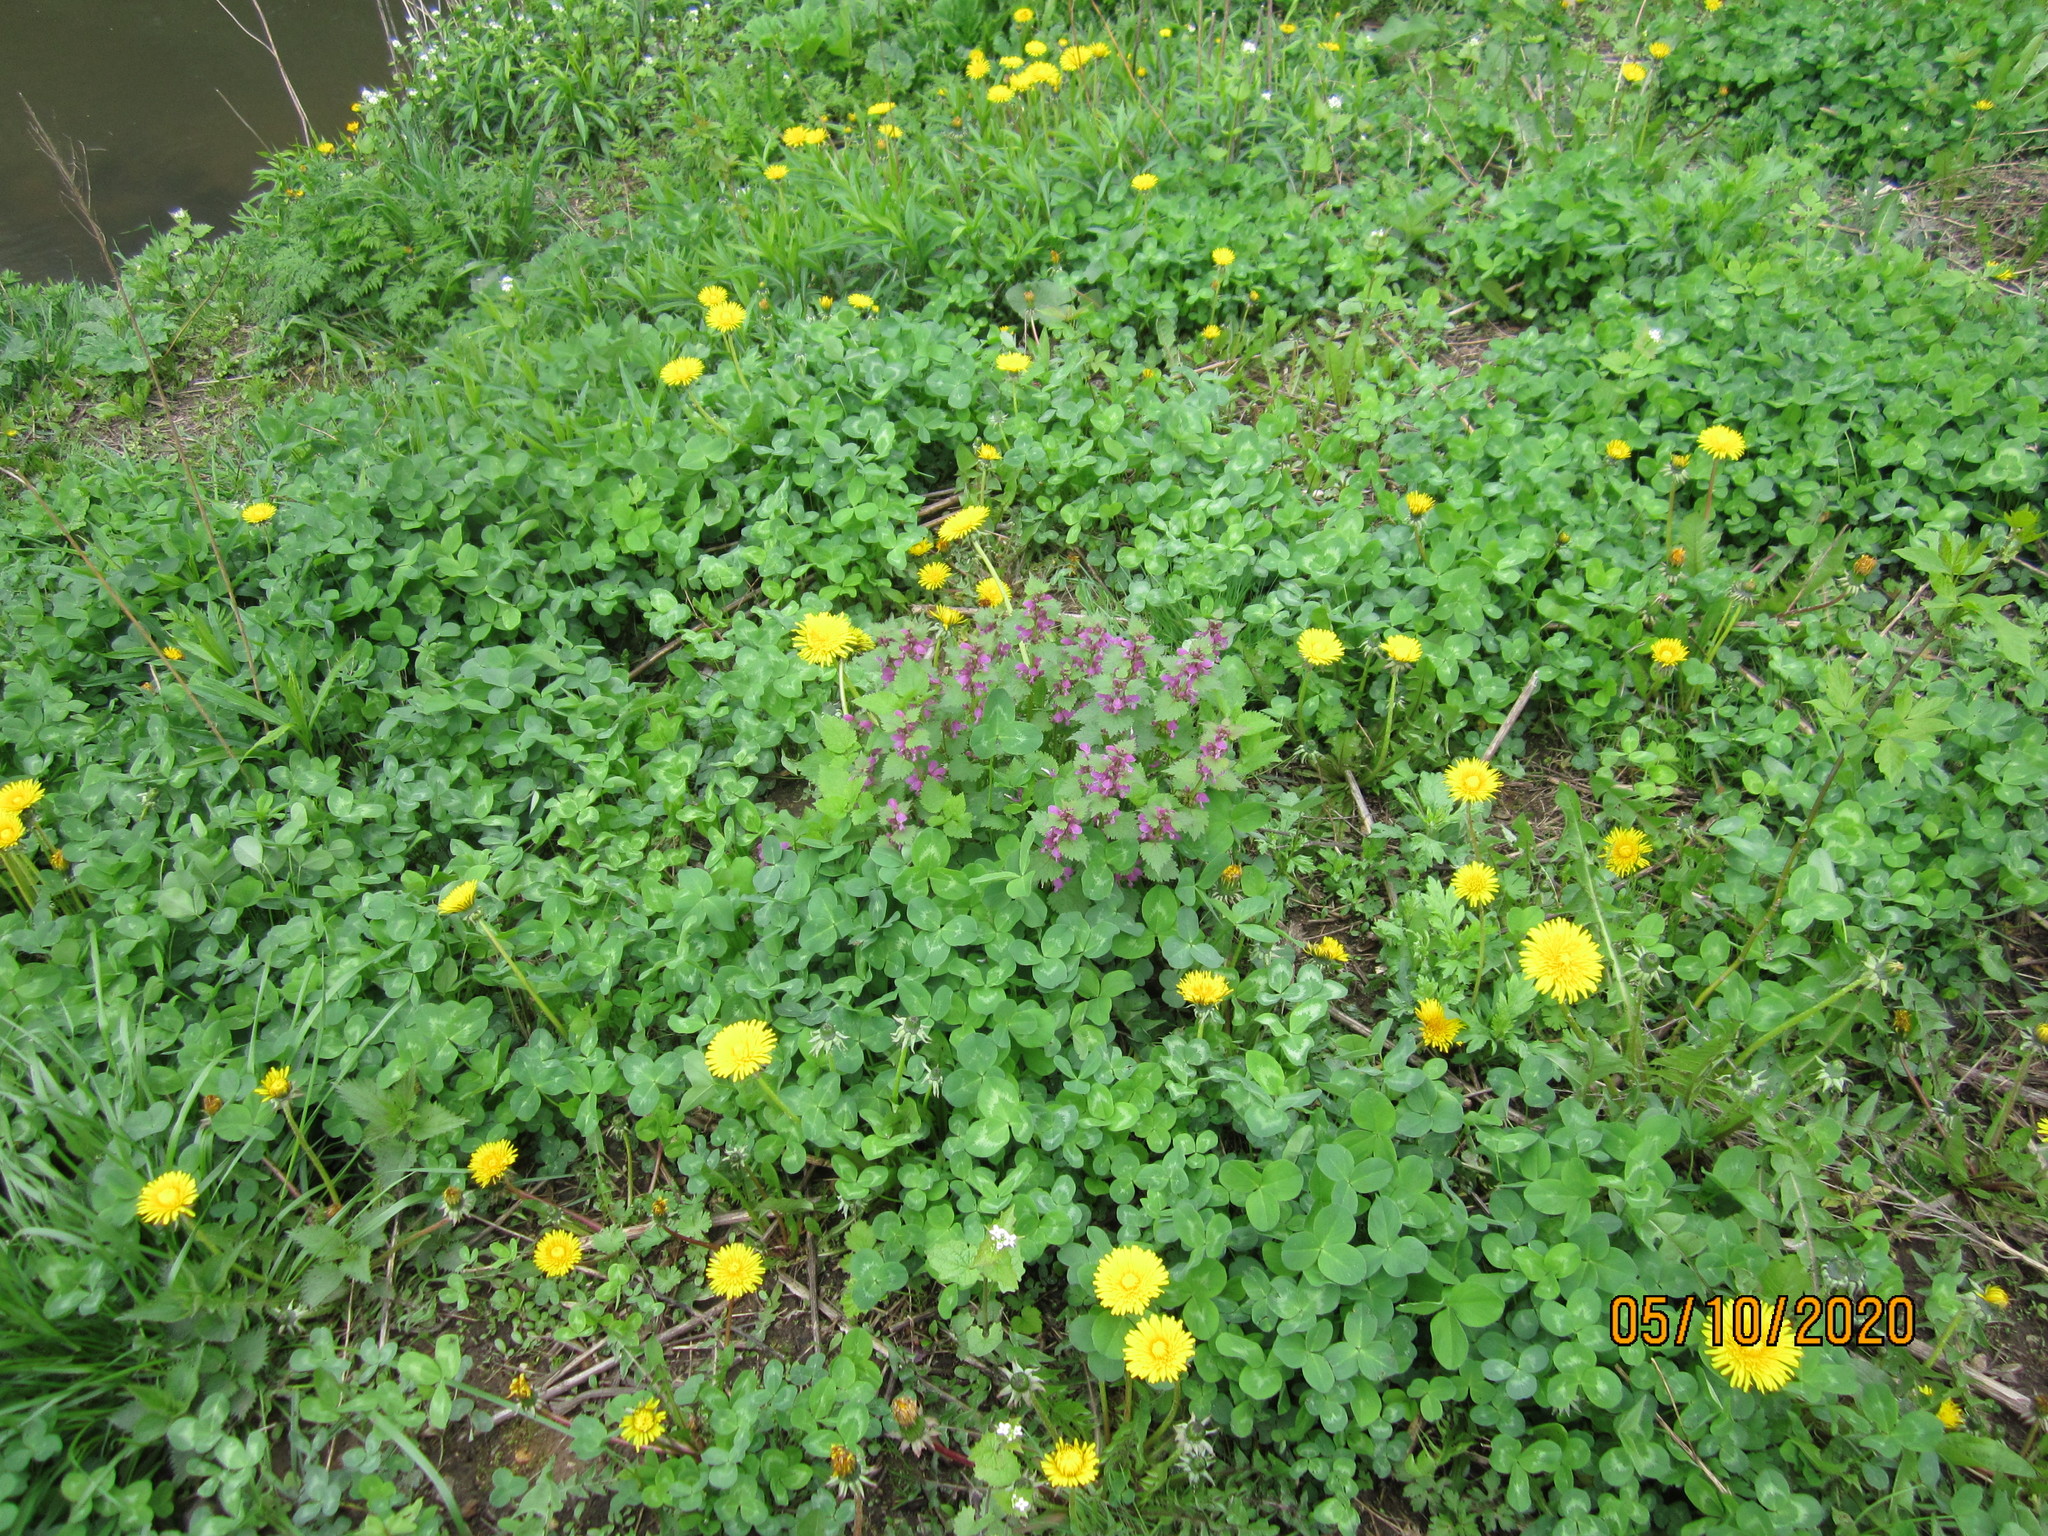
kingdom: Plantae
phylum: Tracheophyta
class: Magnoliopsida
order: Lamiales
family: Lamiaceae
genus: Lamium
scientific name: Lamium maculatum
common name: Spotted dead-nettle
